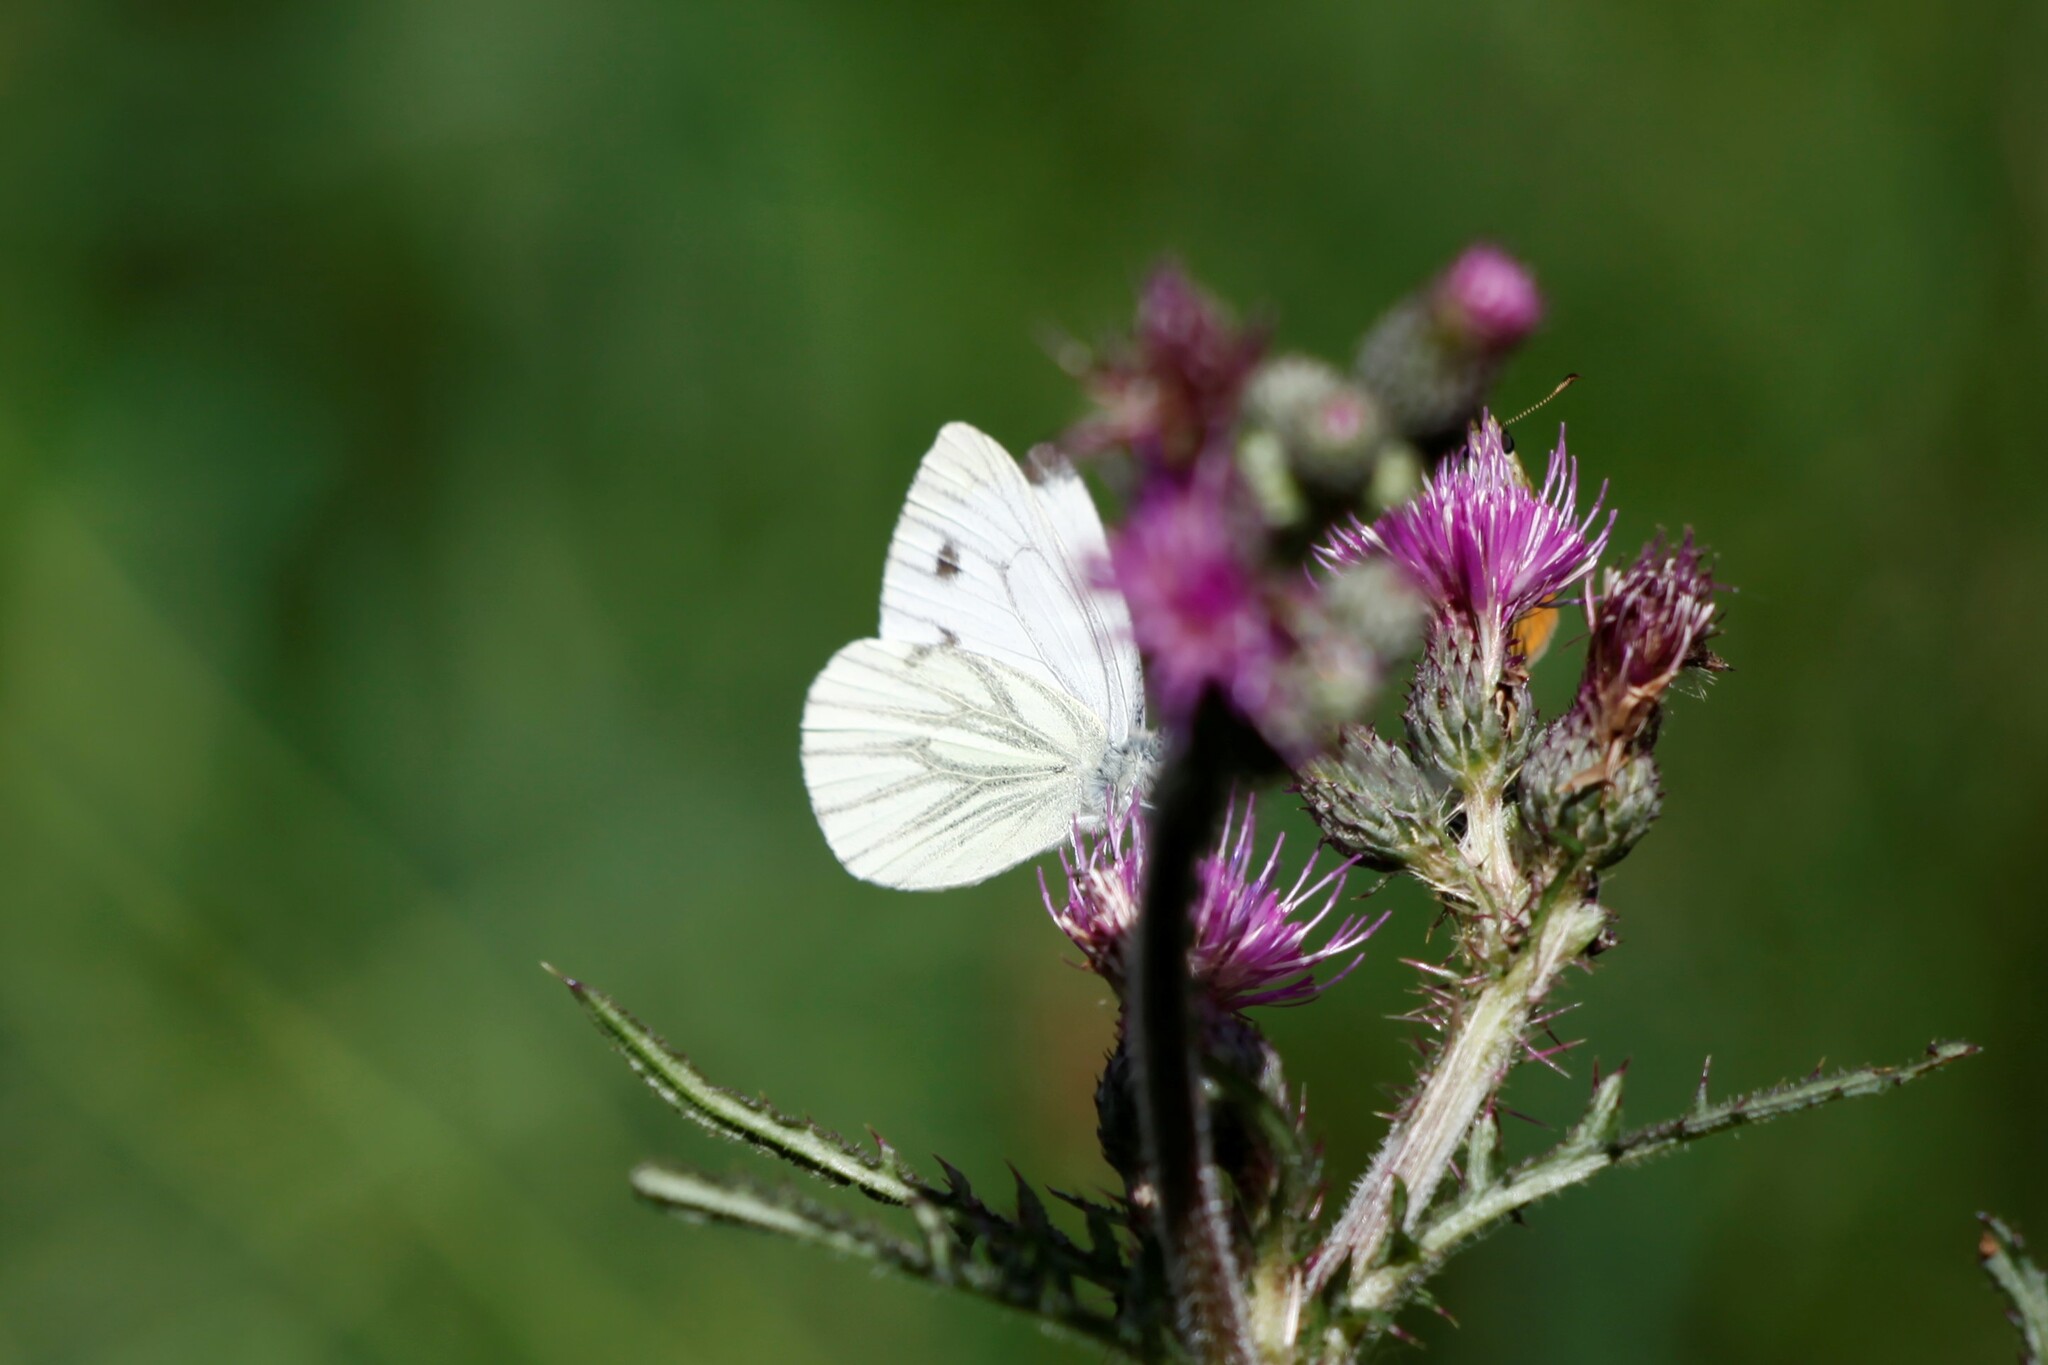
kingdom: Animalia
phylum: Arthropoda
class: Insecta
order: Lepidoptera
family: Pieridae
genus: Pieris
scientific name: Pieris napi
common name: Green-veined white
